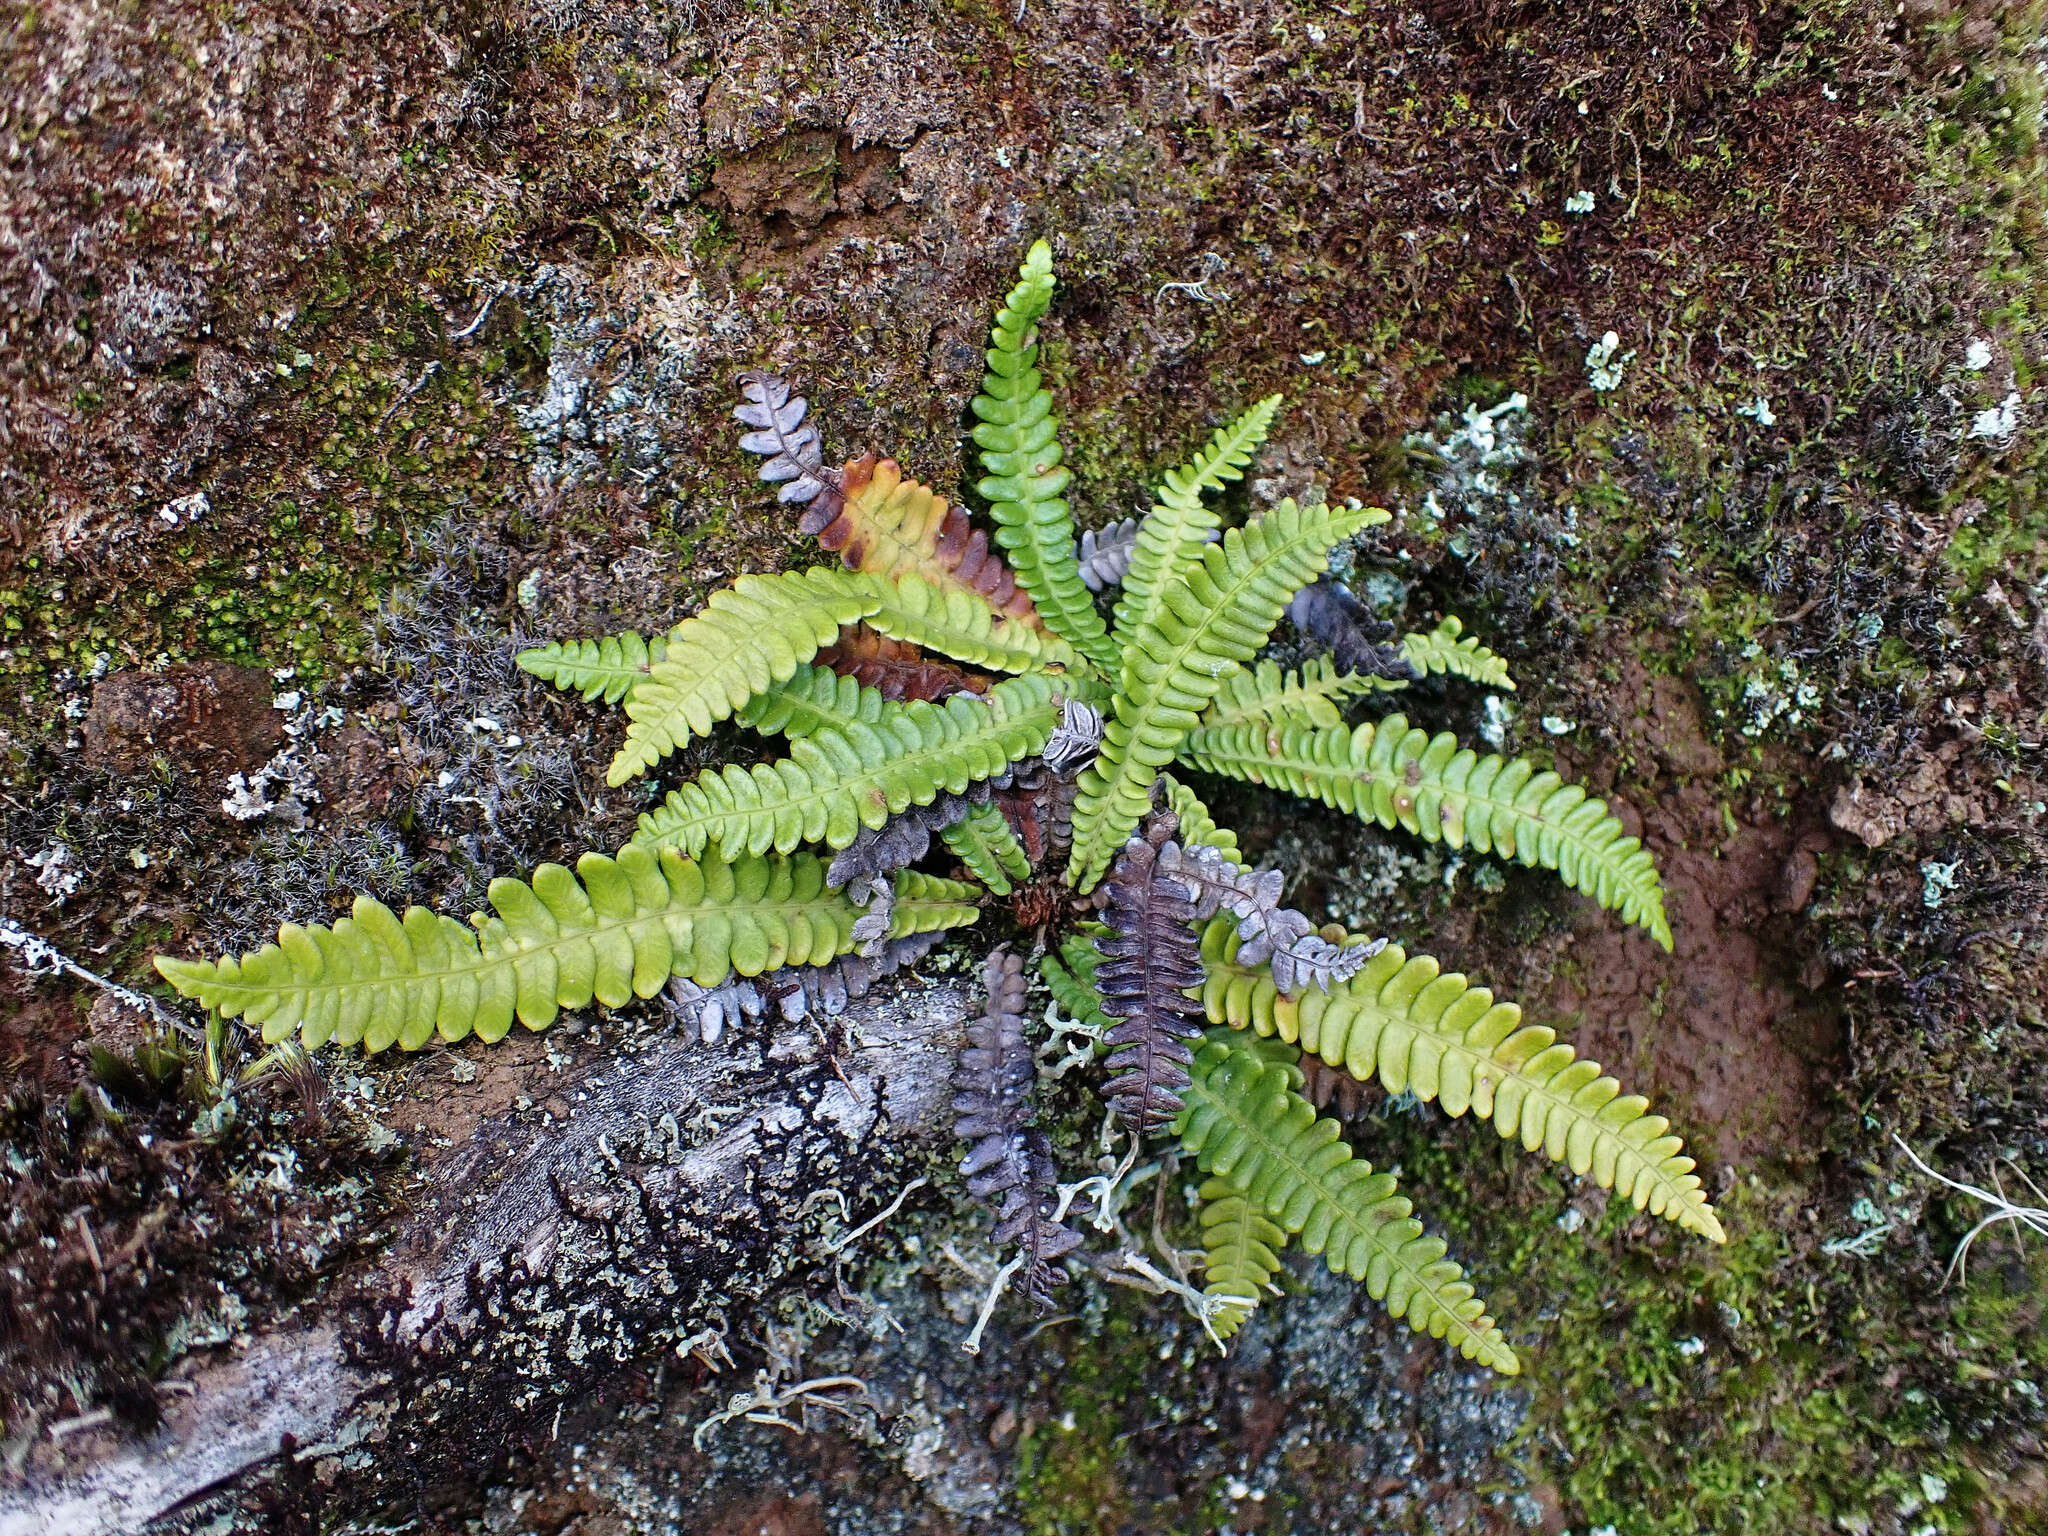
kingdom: Plantae
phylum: Tracheophyta
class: Polypodiopsida
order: Polypodiales
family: Blechnaceae
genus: Struthiopteris
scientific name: Struthiopteris spicant
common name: Deer fern
